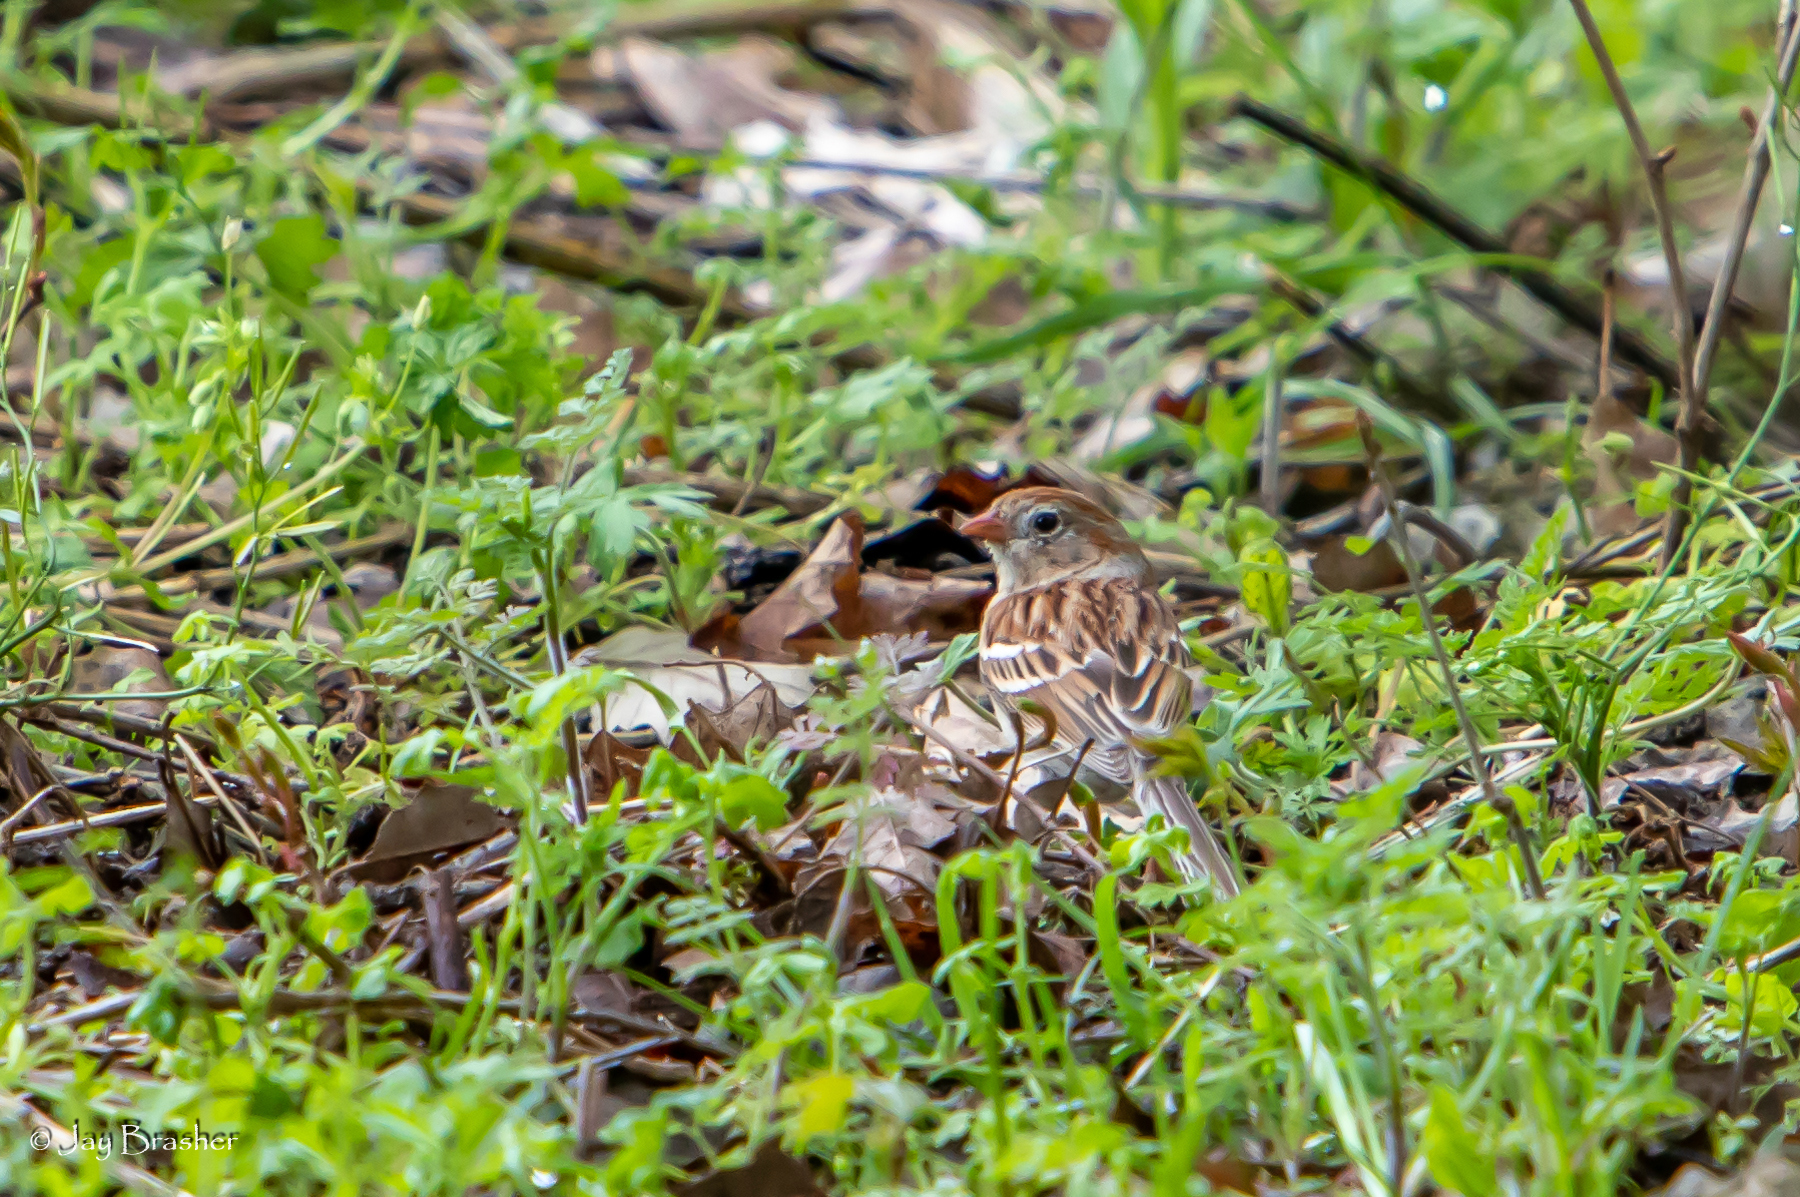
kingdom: Animalia
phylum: Chordata
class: Aves
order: Passeriformes
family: Passerellidae
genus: Spizella
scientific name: Spizella pusilla
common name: Field sparrow
